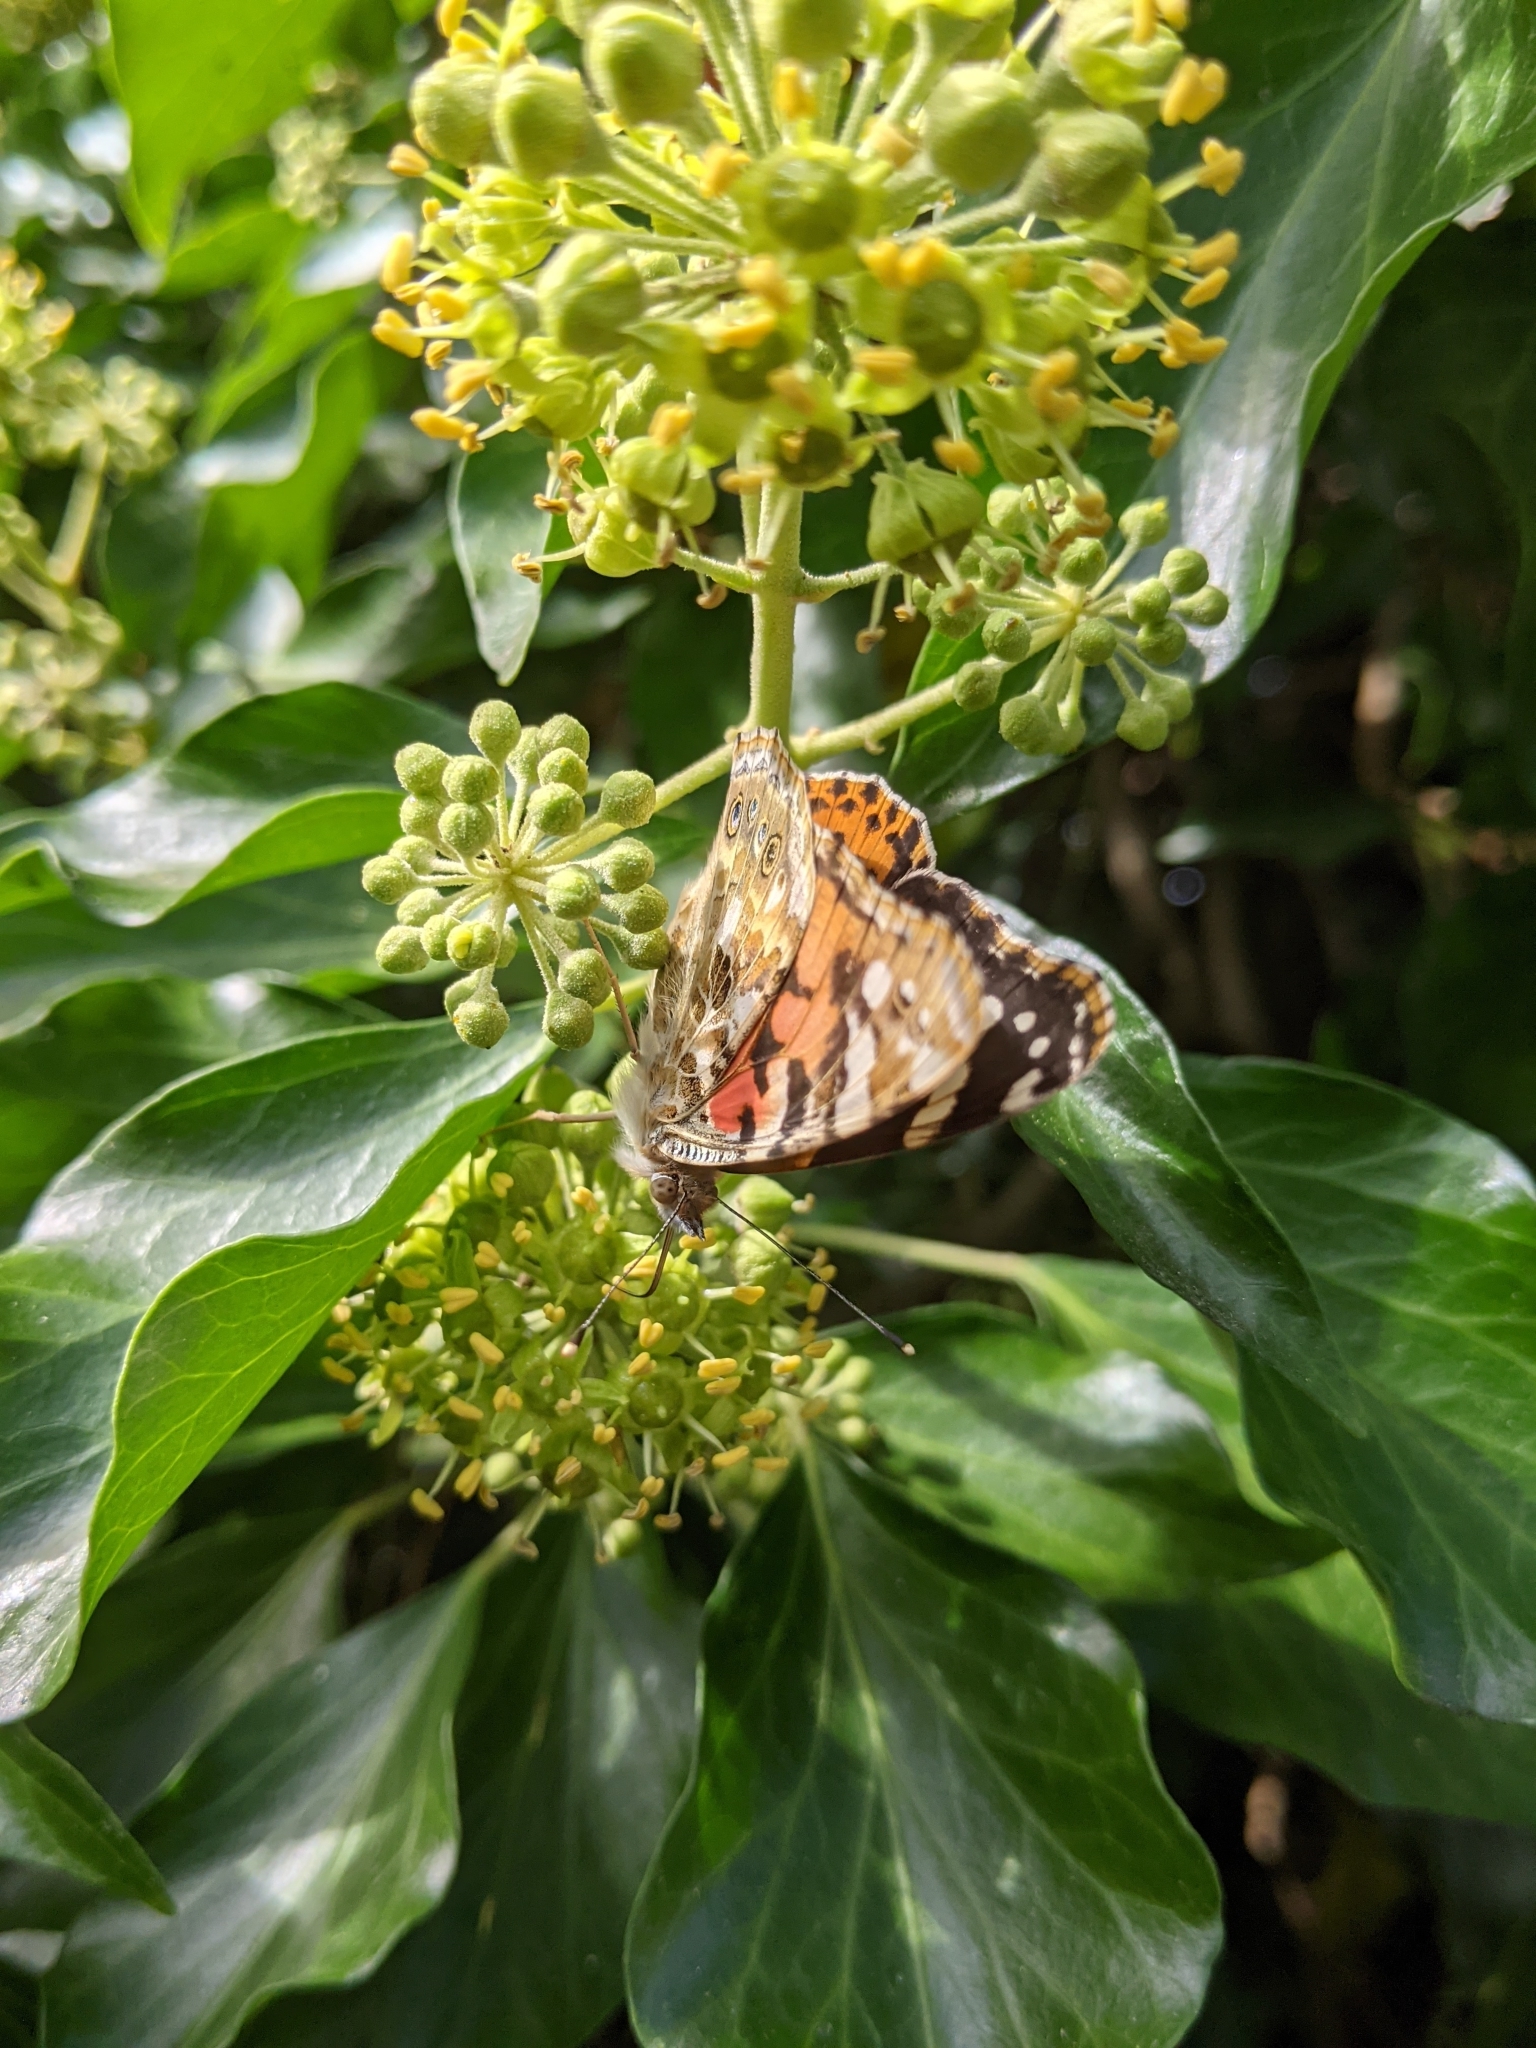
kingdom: Animalia
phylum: Arthropoda
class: Insecta
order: Lepidoptera
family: Nymphalidae
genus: Vanessa
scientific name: Vanessa cardui
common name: Painted lady
